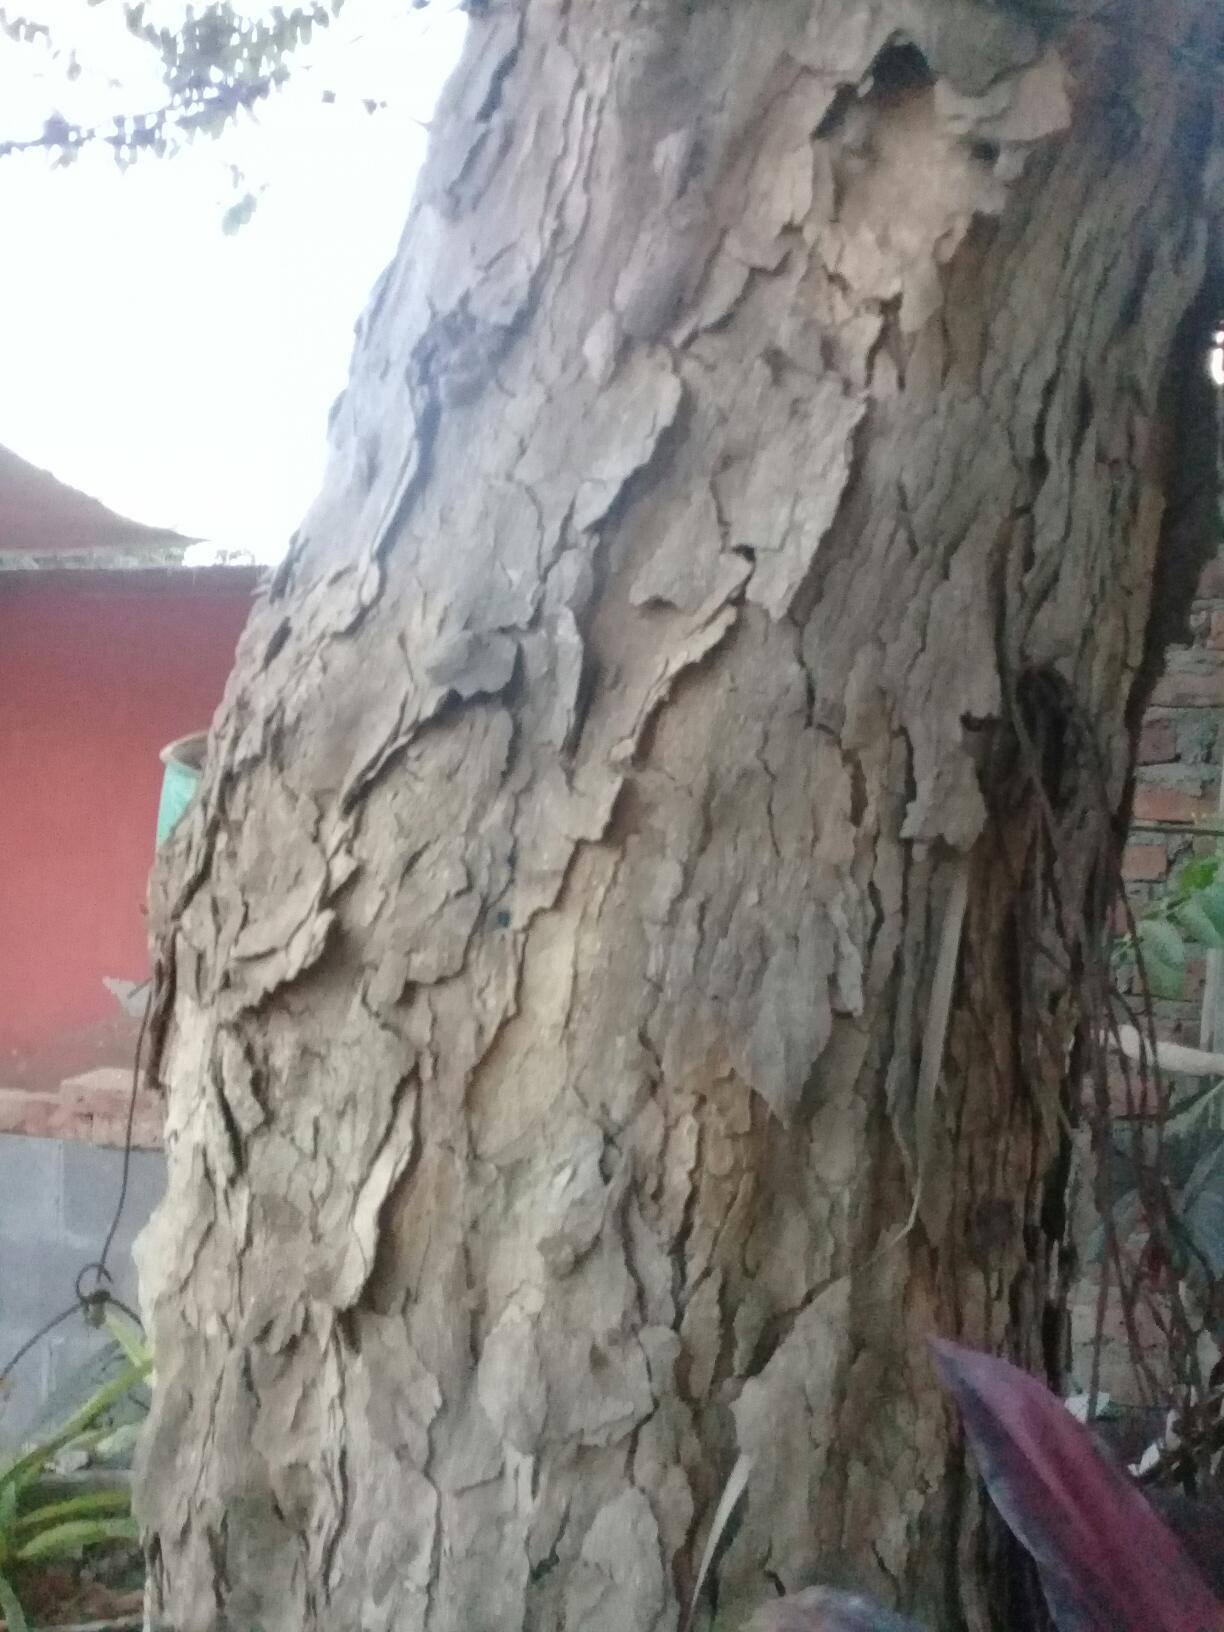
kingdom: Plantae
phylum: Tracheophyta
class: Magnoliopsida
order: Ericales
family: Sapotaceae
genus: Chrysophyllum
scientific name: Chrysophyllum cainito
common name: Star-apple
